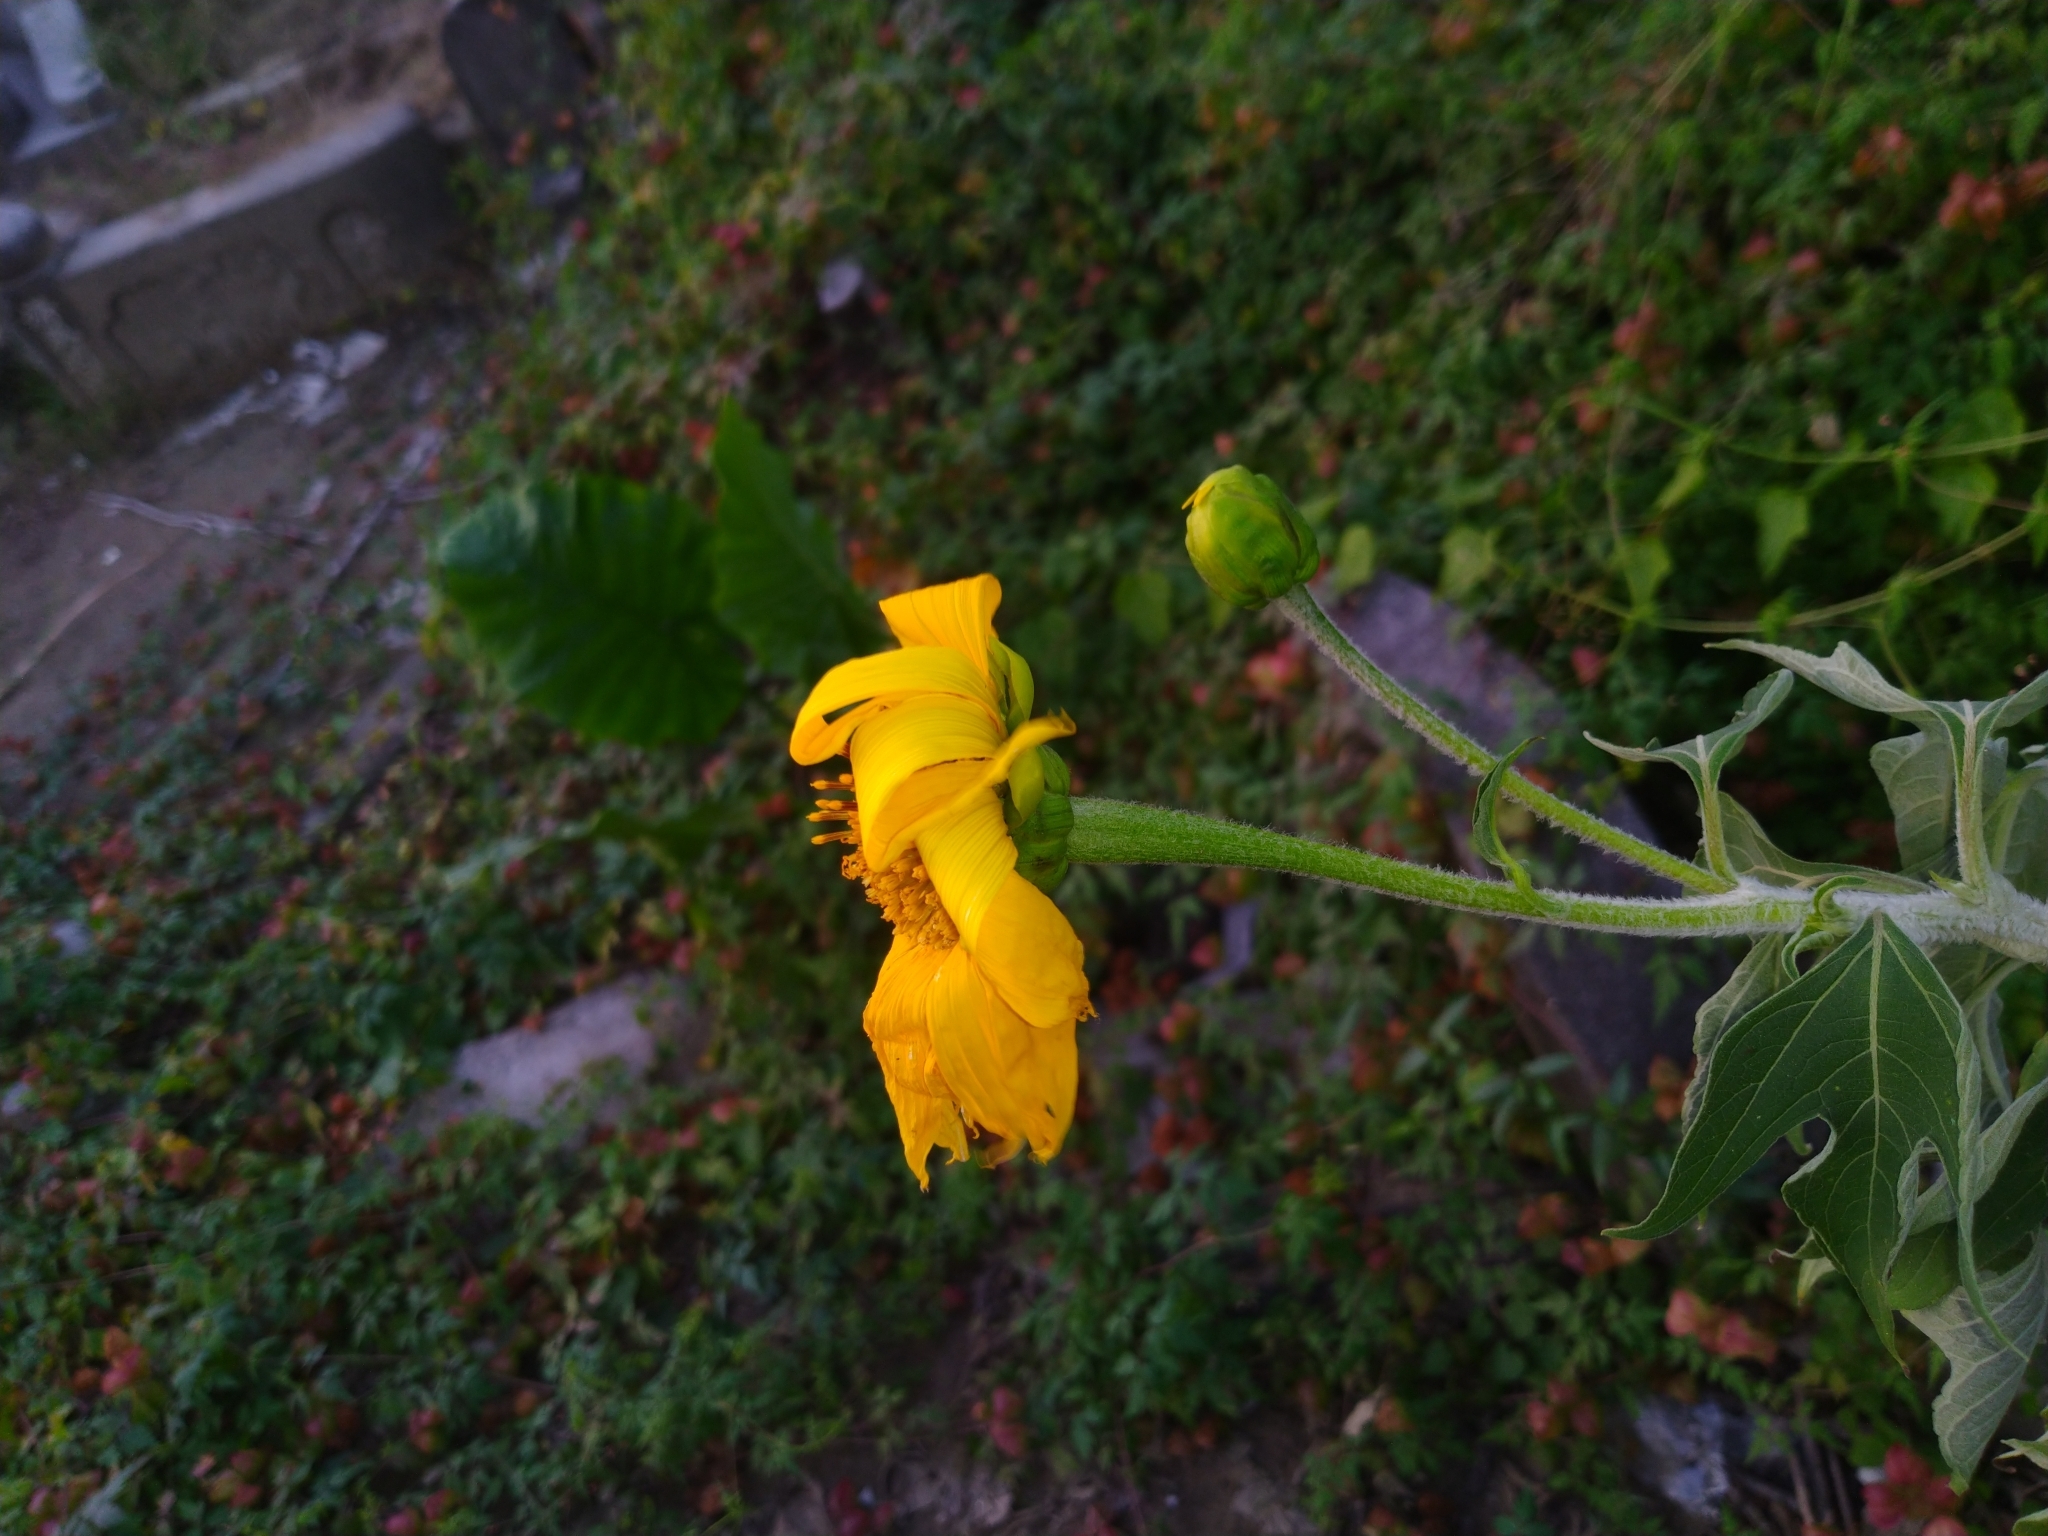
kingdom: Plantae
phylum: Tracheophyta
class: Magnoliopsida
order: Asterales
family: Asteraceae
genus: Tithonia
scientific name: Tithonia diversifolia
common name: Tree marigold
